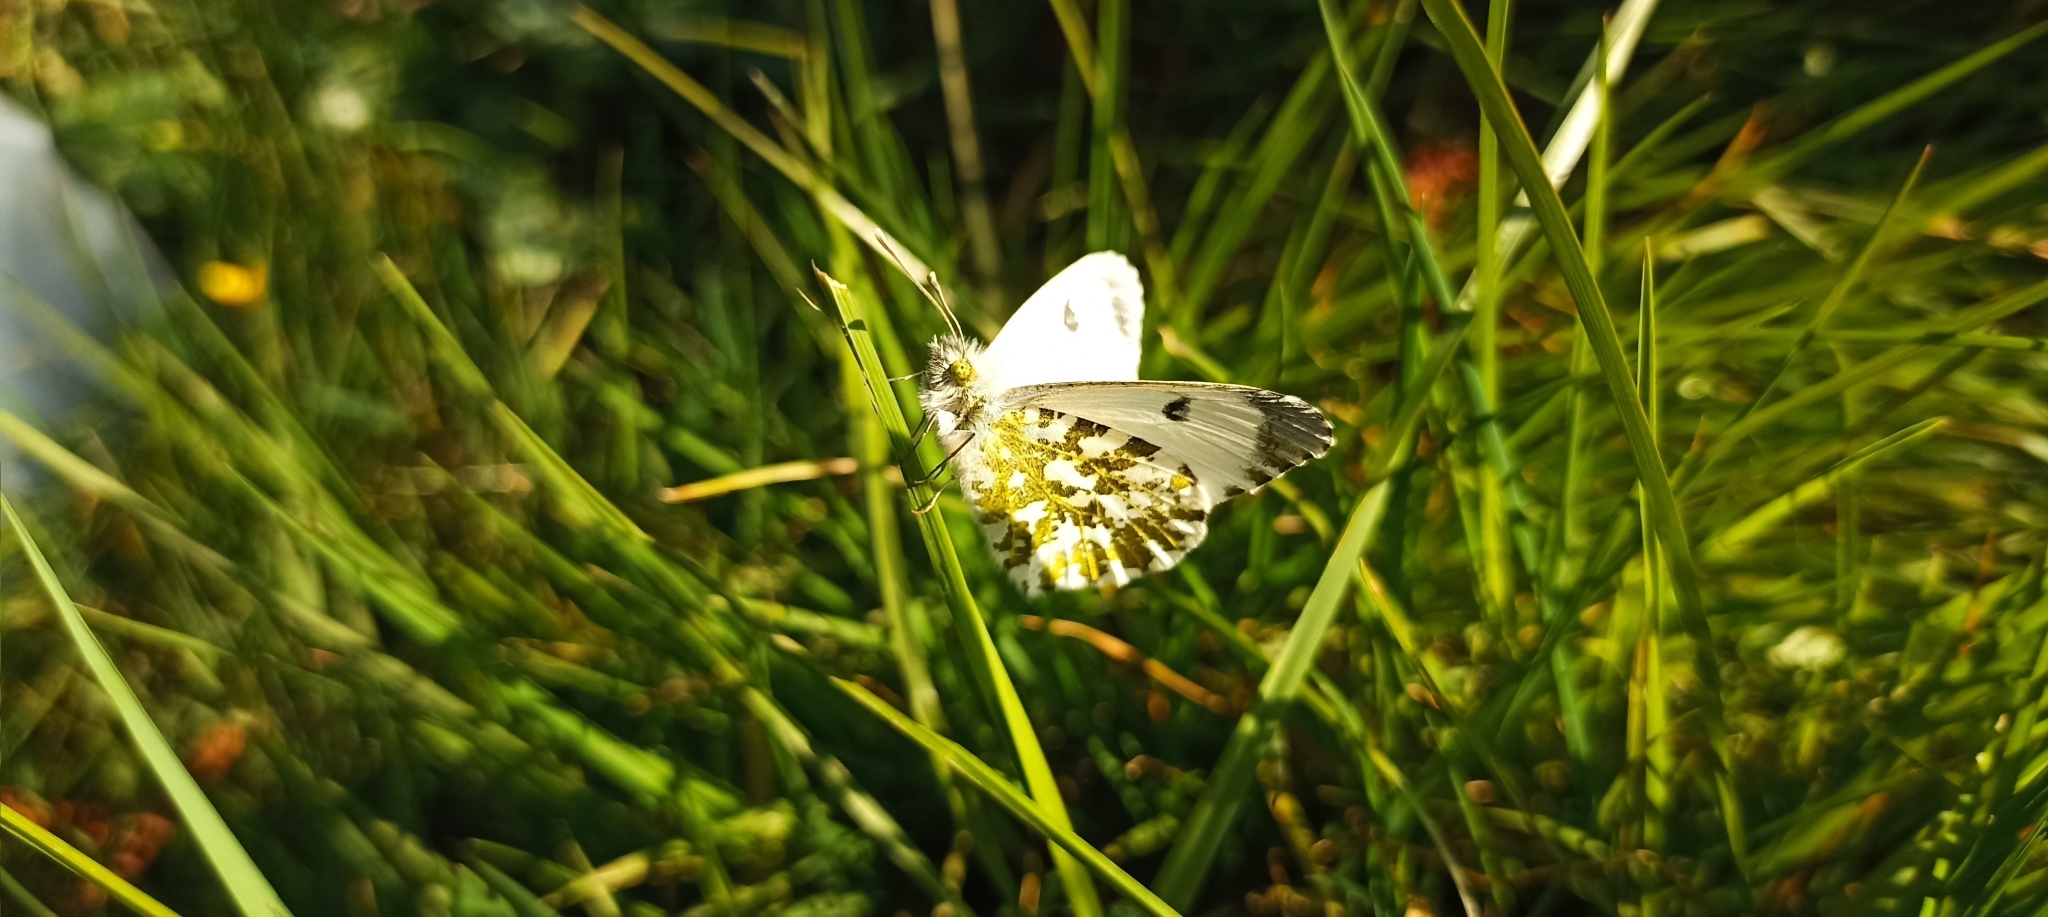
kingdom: Animalia
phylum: Arthropoda
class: Insecta
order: Lepidoptera
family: Pieridae
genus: Anthocharis
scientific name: Anthocharis cardamines
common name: Orange-tip
